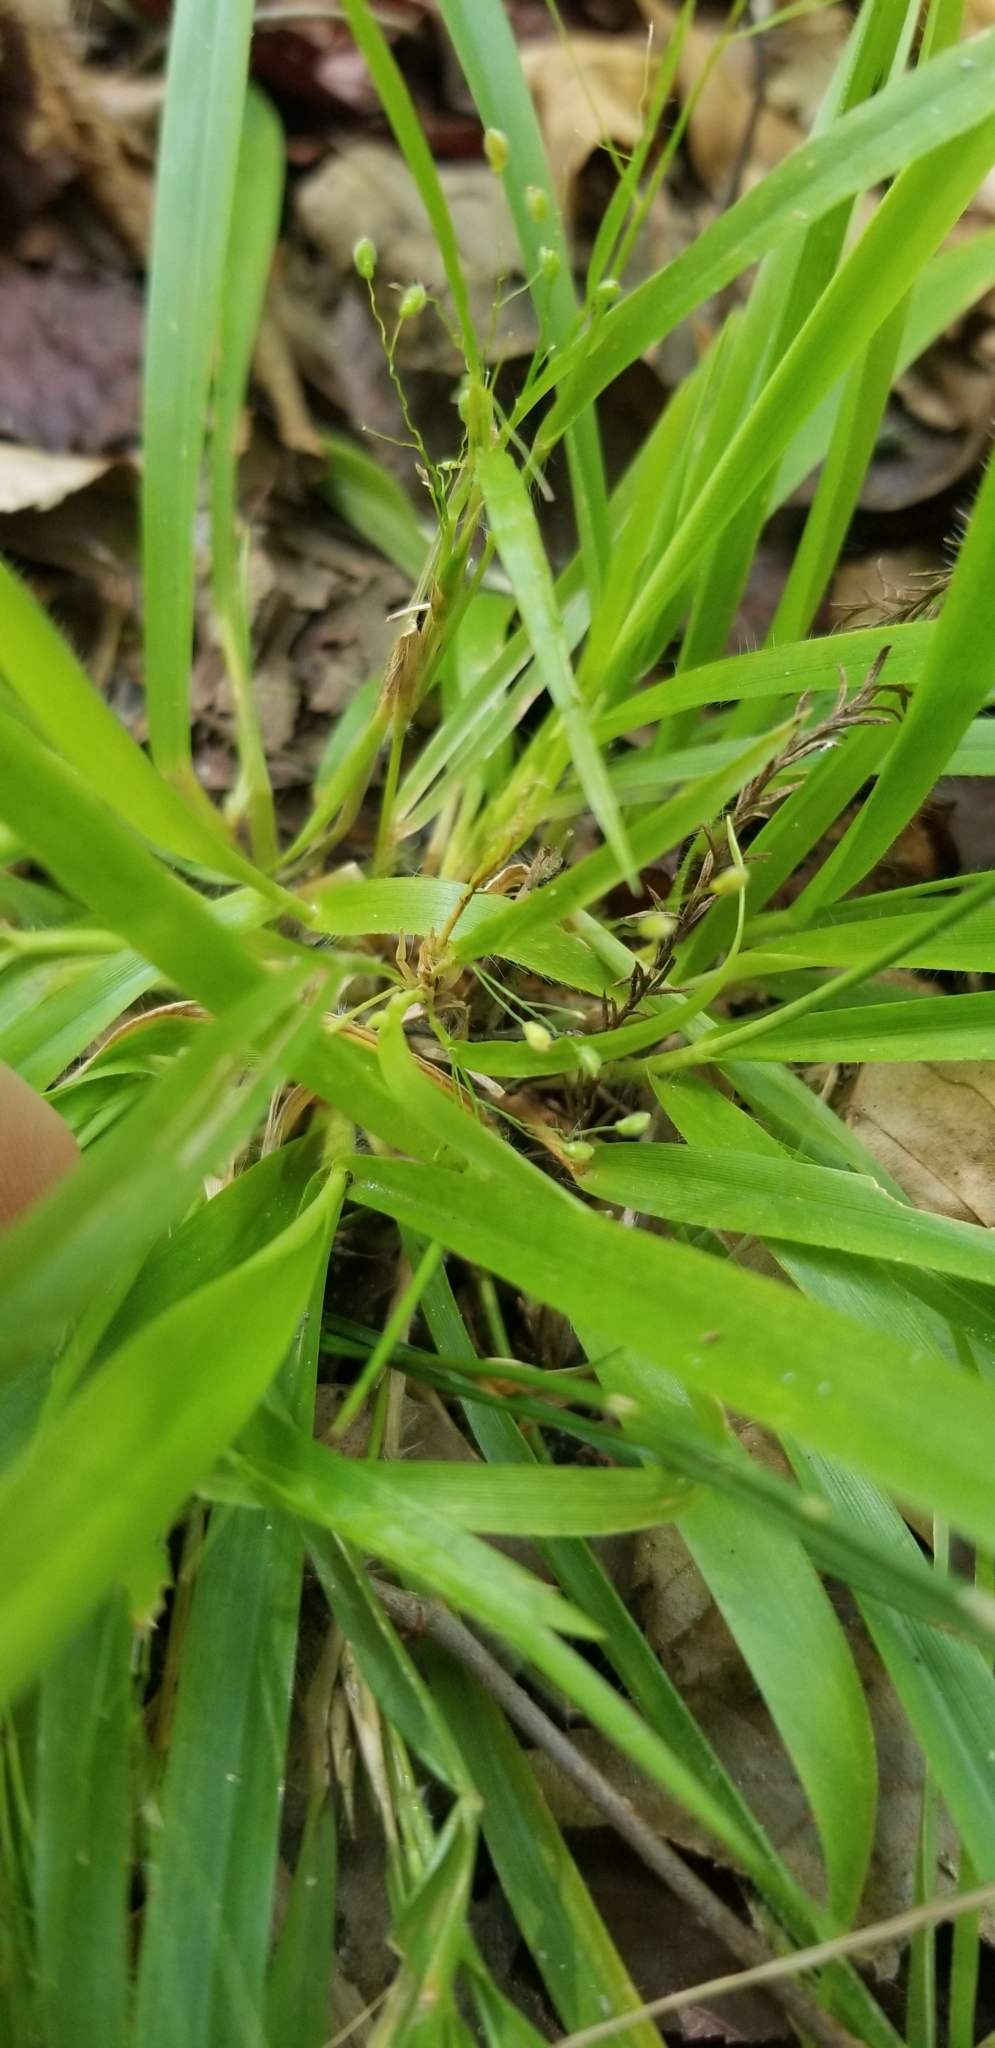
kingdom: Plantae
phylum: Tracheophyta
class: Liliopsida
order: Poales
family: Poaceae
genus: Dichanthelium
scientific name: Dichanthelium laxiflorum
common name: Soft-tuft panic grass
